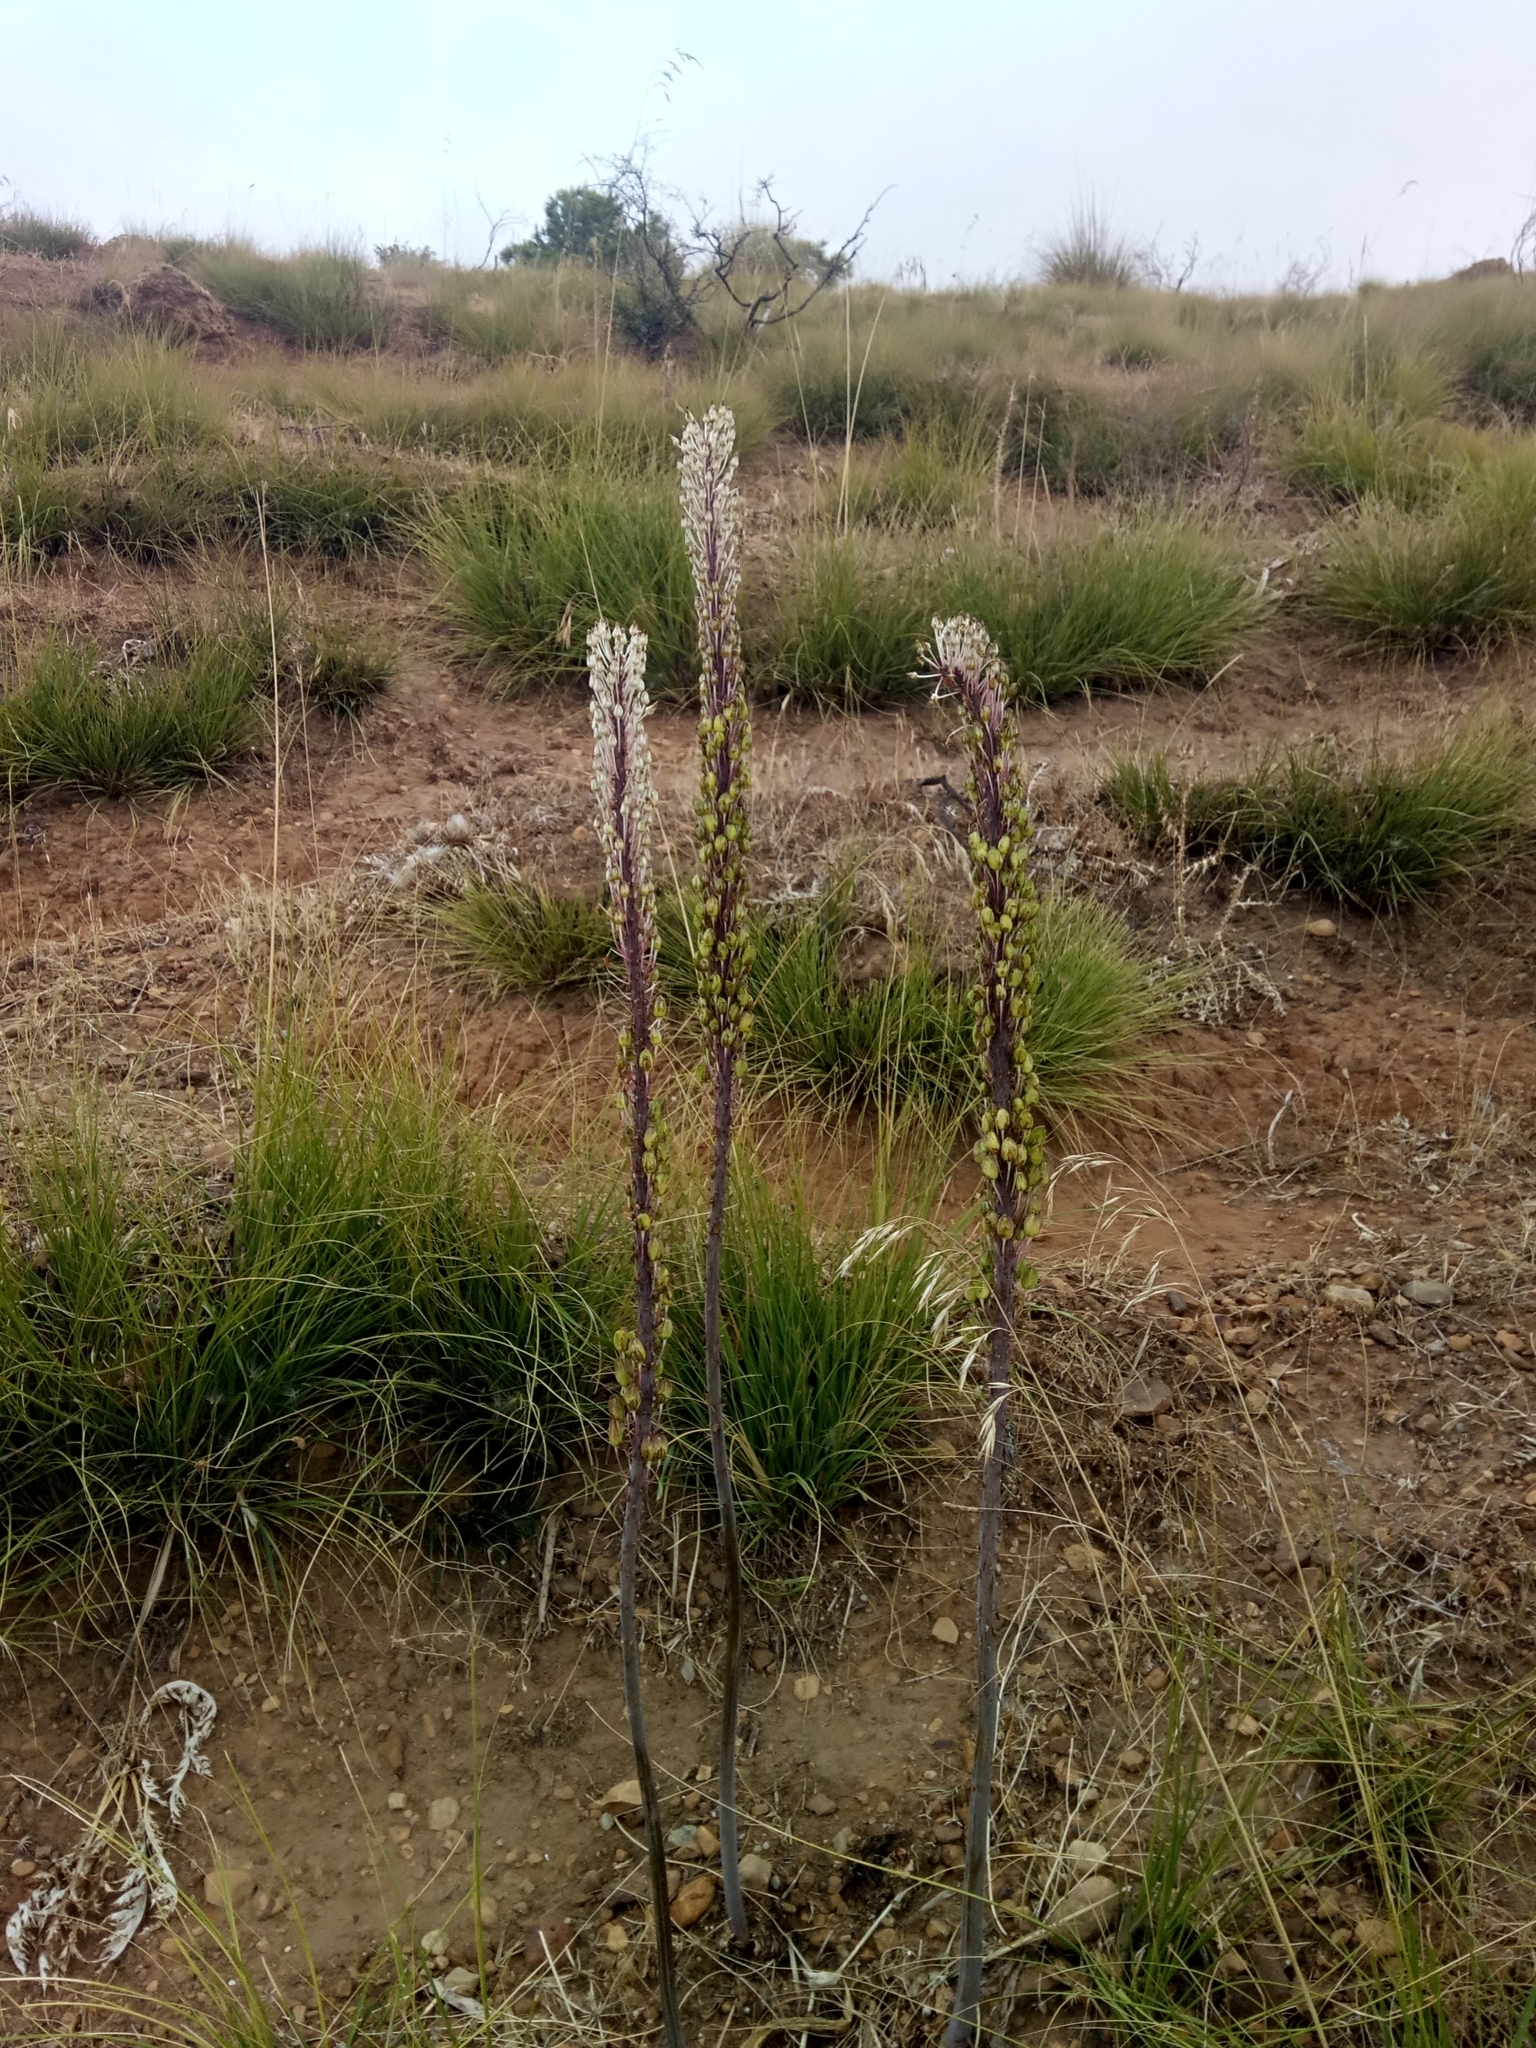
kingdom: Plantae
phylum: Tracheophyta
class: Liliopsida
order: Asparagales
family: Asparagaceae
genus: Drimia
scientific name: Drimia numidica
